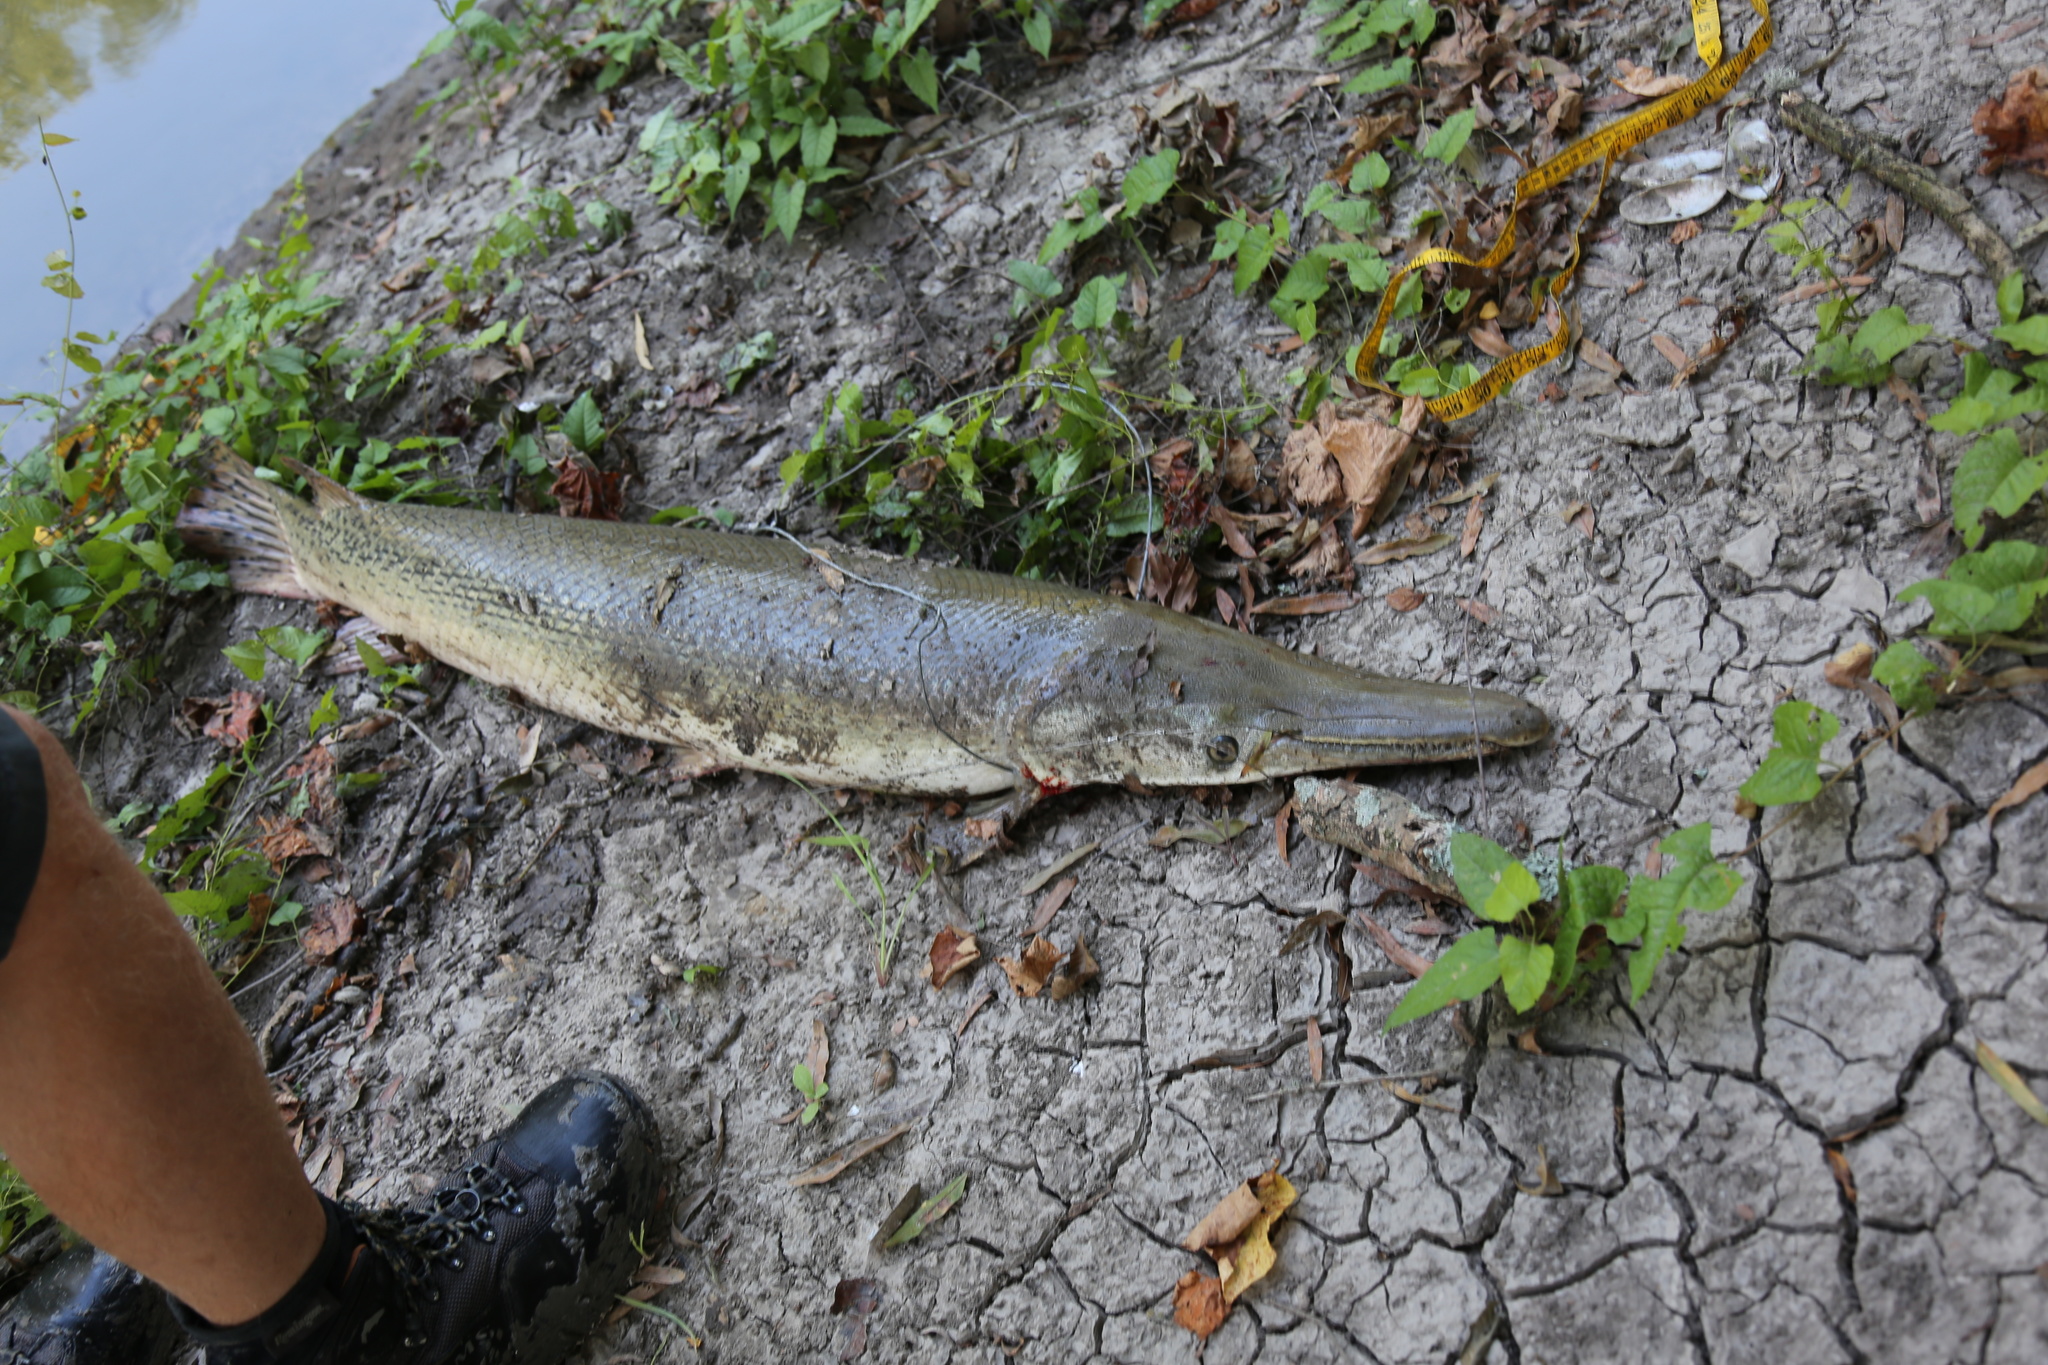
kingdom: Animalia
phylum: Chordata
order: Lepisosteiformes
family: Lepisosteidae
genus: Atractosteus
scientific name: Atractosteus spatula
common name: Alligator gar
